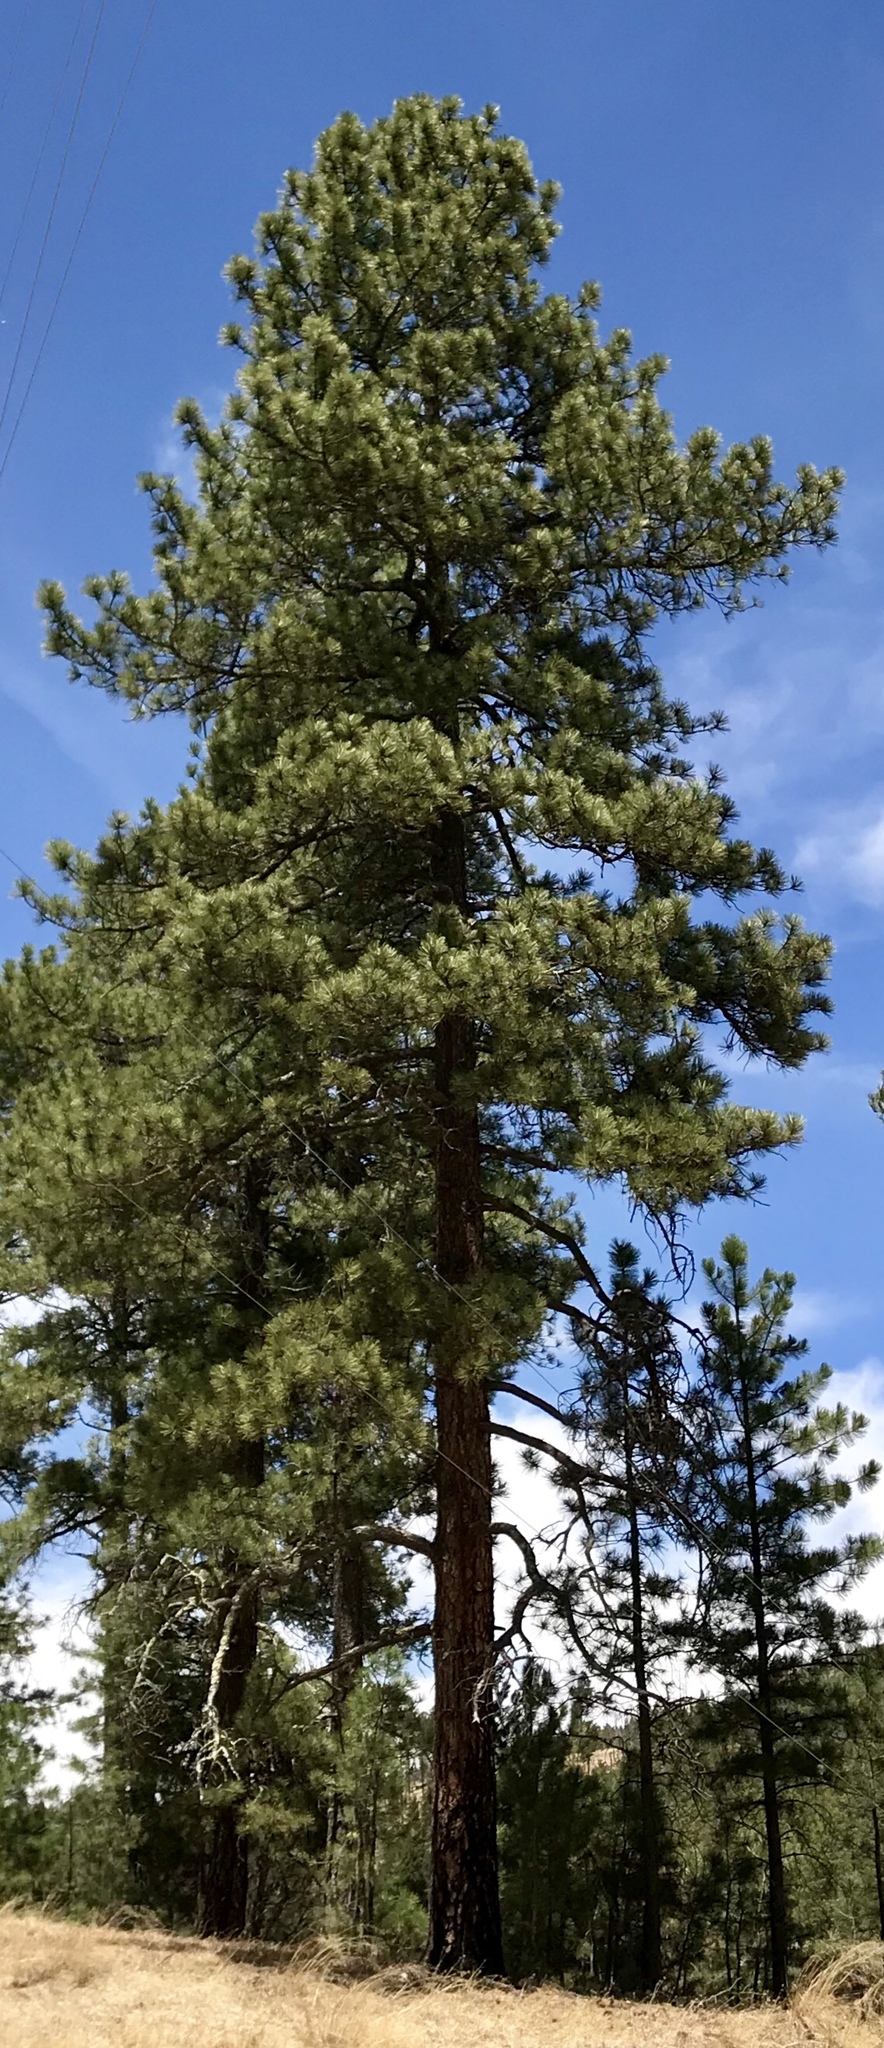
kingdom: Plantae
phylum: Tracheophyta
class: Pinopsida
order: Pinales
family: Pinaceae
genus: Pinus
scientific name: Pinus ponderosa
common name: Western yellow-pine
